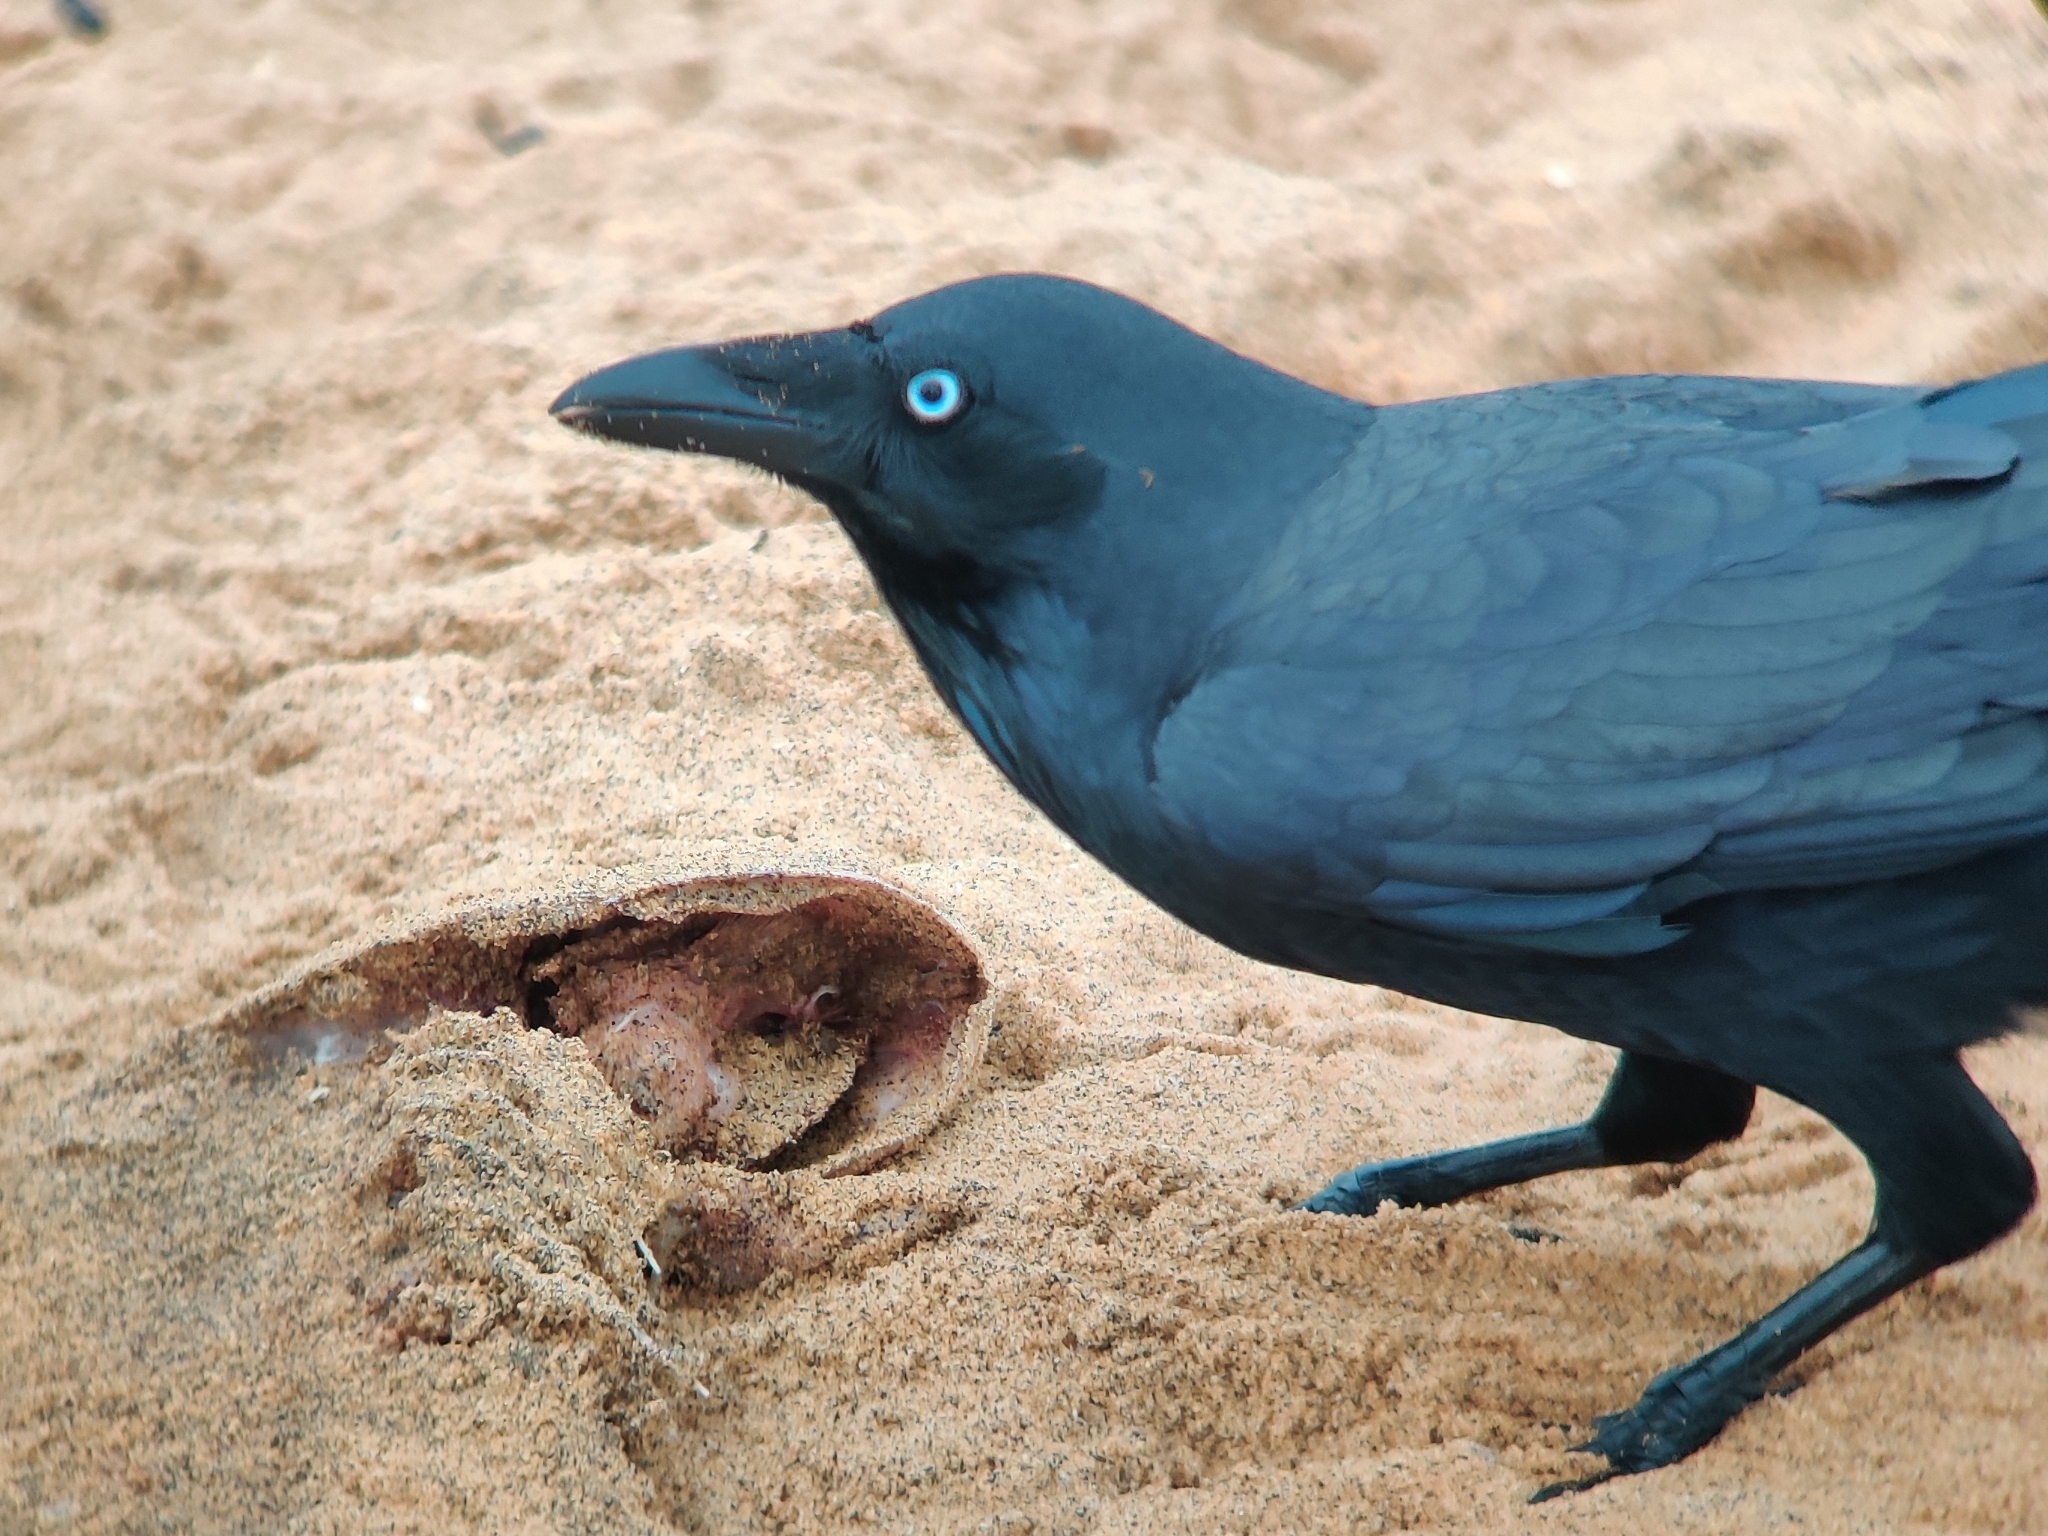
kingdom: Animalia
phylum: Chordata
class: Aves
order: Passeriformes
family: Corvidae
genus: Corvus
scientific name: Corvus coronoides
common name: Australian raven
